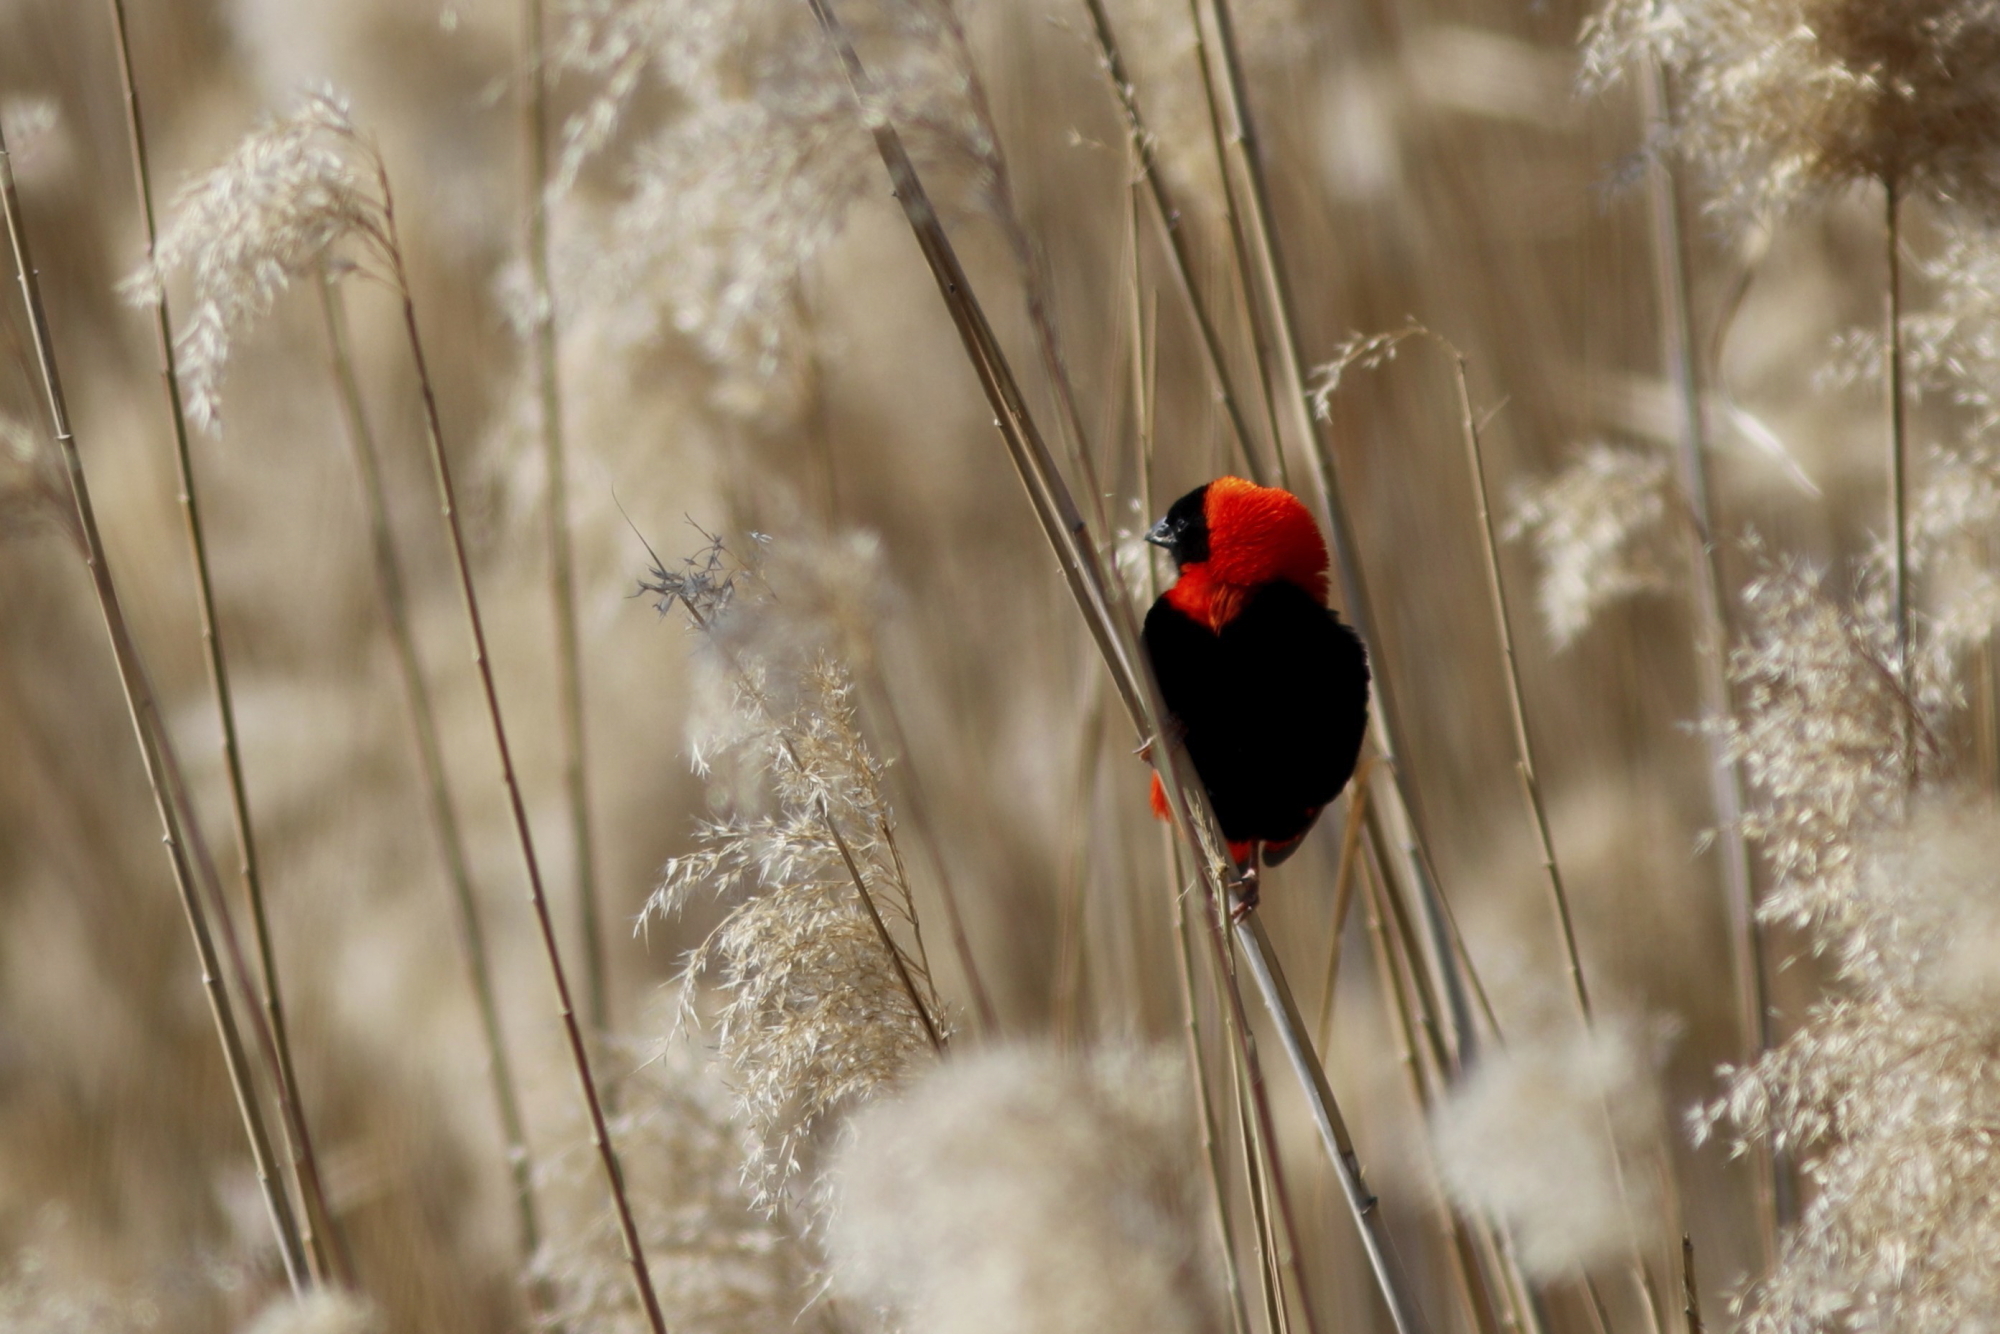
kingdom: Animalia
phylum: Chordata
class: Aves
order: Passeriformes
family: Ploceidae
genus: Euplectes
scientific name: Euplectes orix
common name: Southern red bishop
